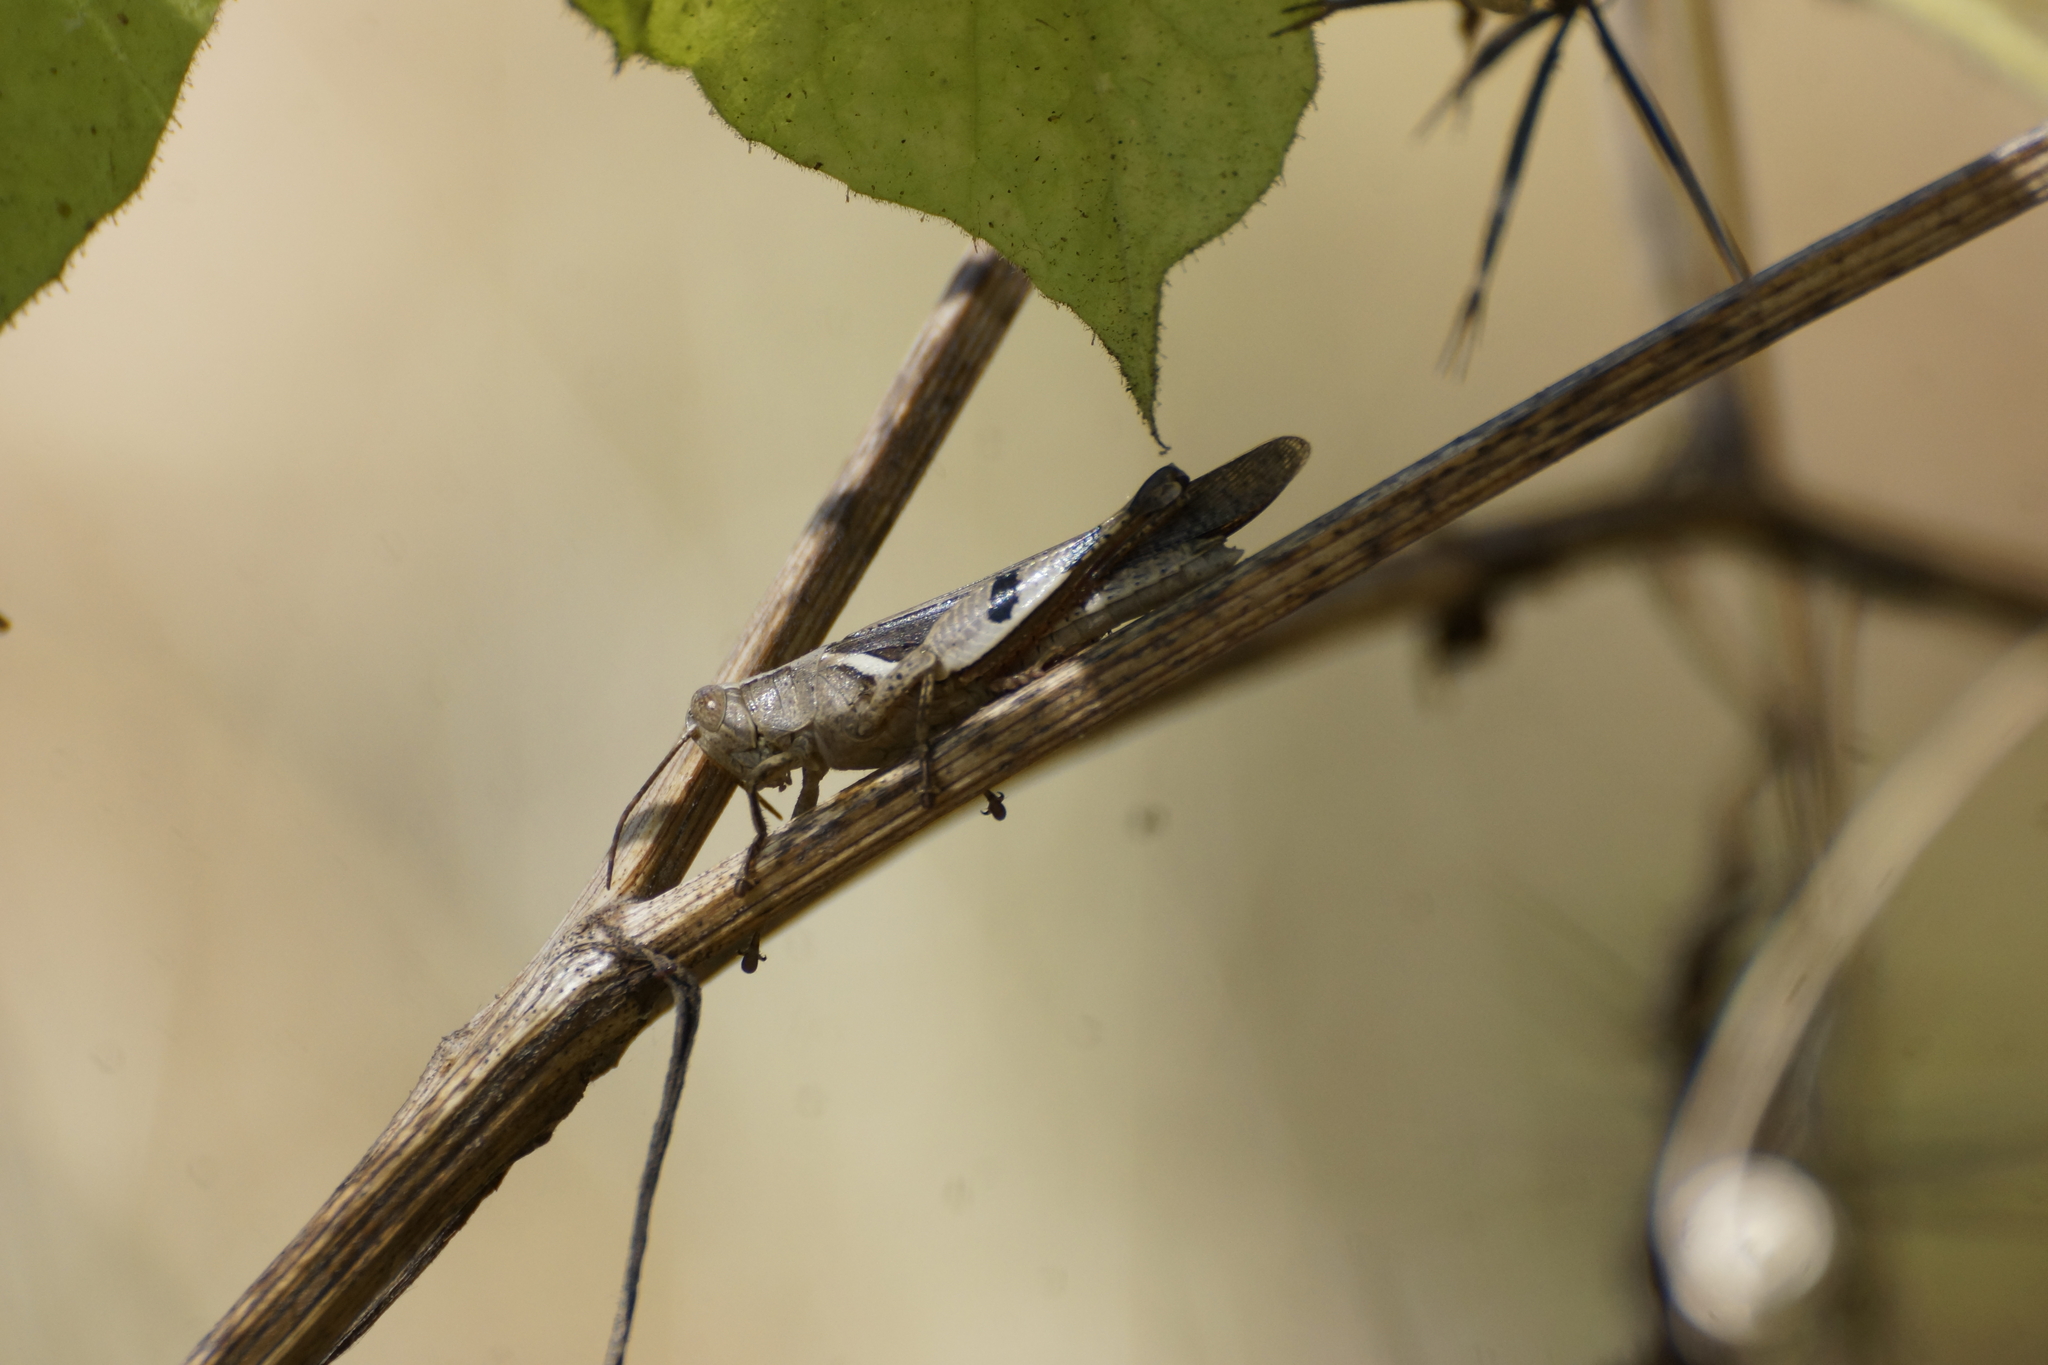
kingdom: Animalia
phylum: Arthropoda
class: Insecta
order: Orthoptera
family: Acrididae
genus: Stenocatantops
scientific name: Stenocatantops angustifrons
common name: Common tropical sharptail
